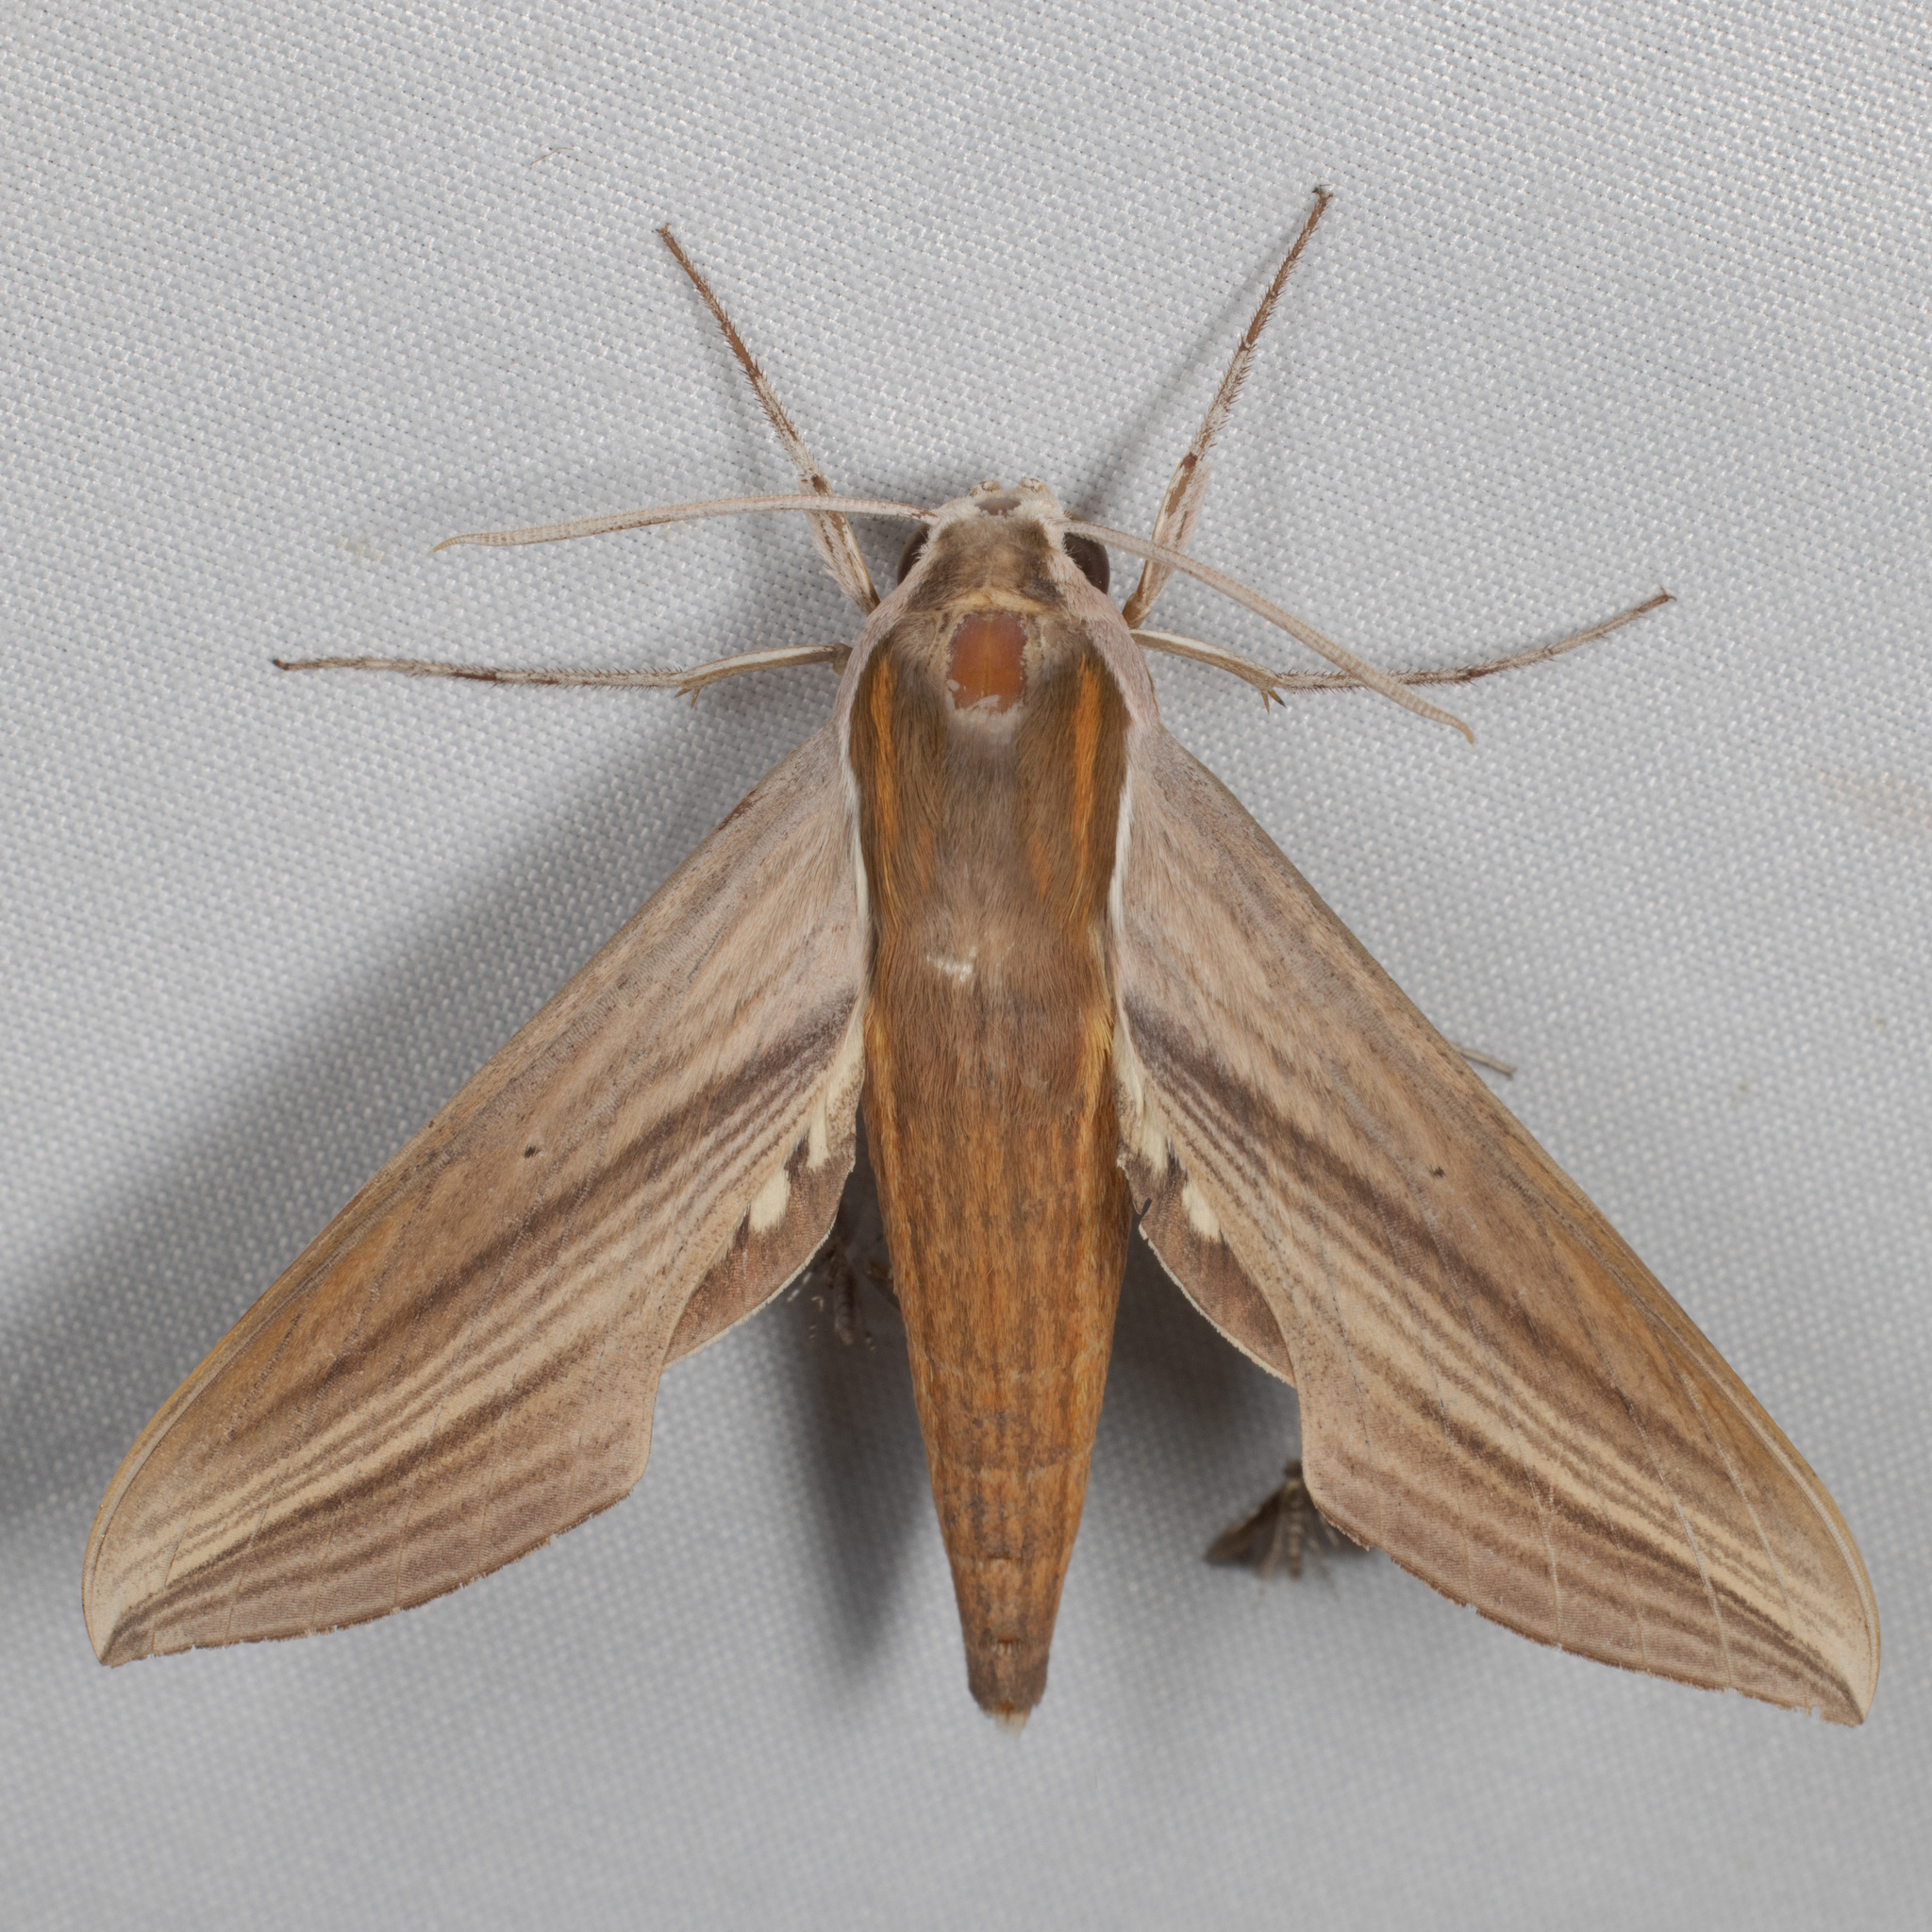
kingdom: Animalia
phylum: Arthropoda
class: Insecta
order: Lepidoptera
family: Sphingidae
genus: Xylophanes
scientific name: Xylophanes tersa
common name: Tersa sphinx
